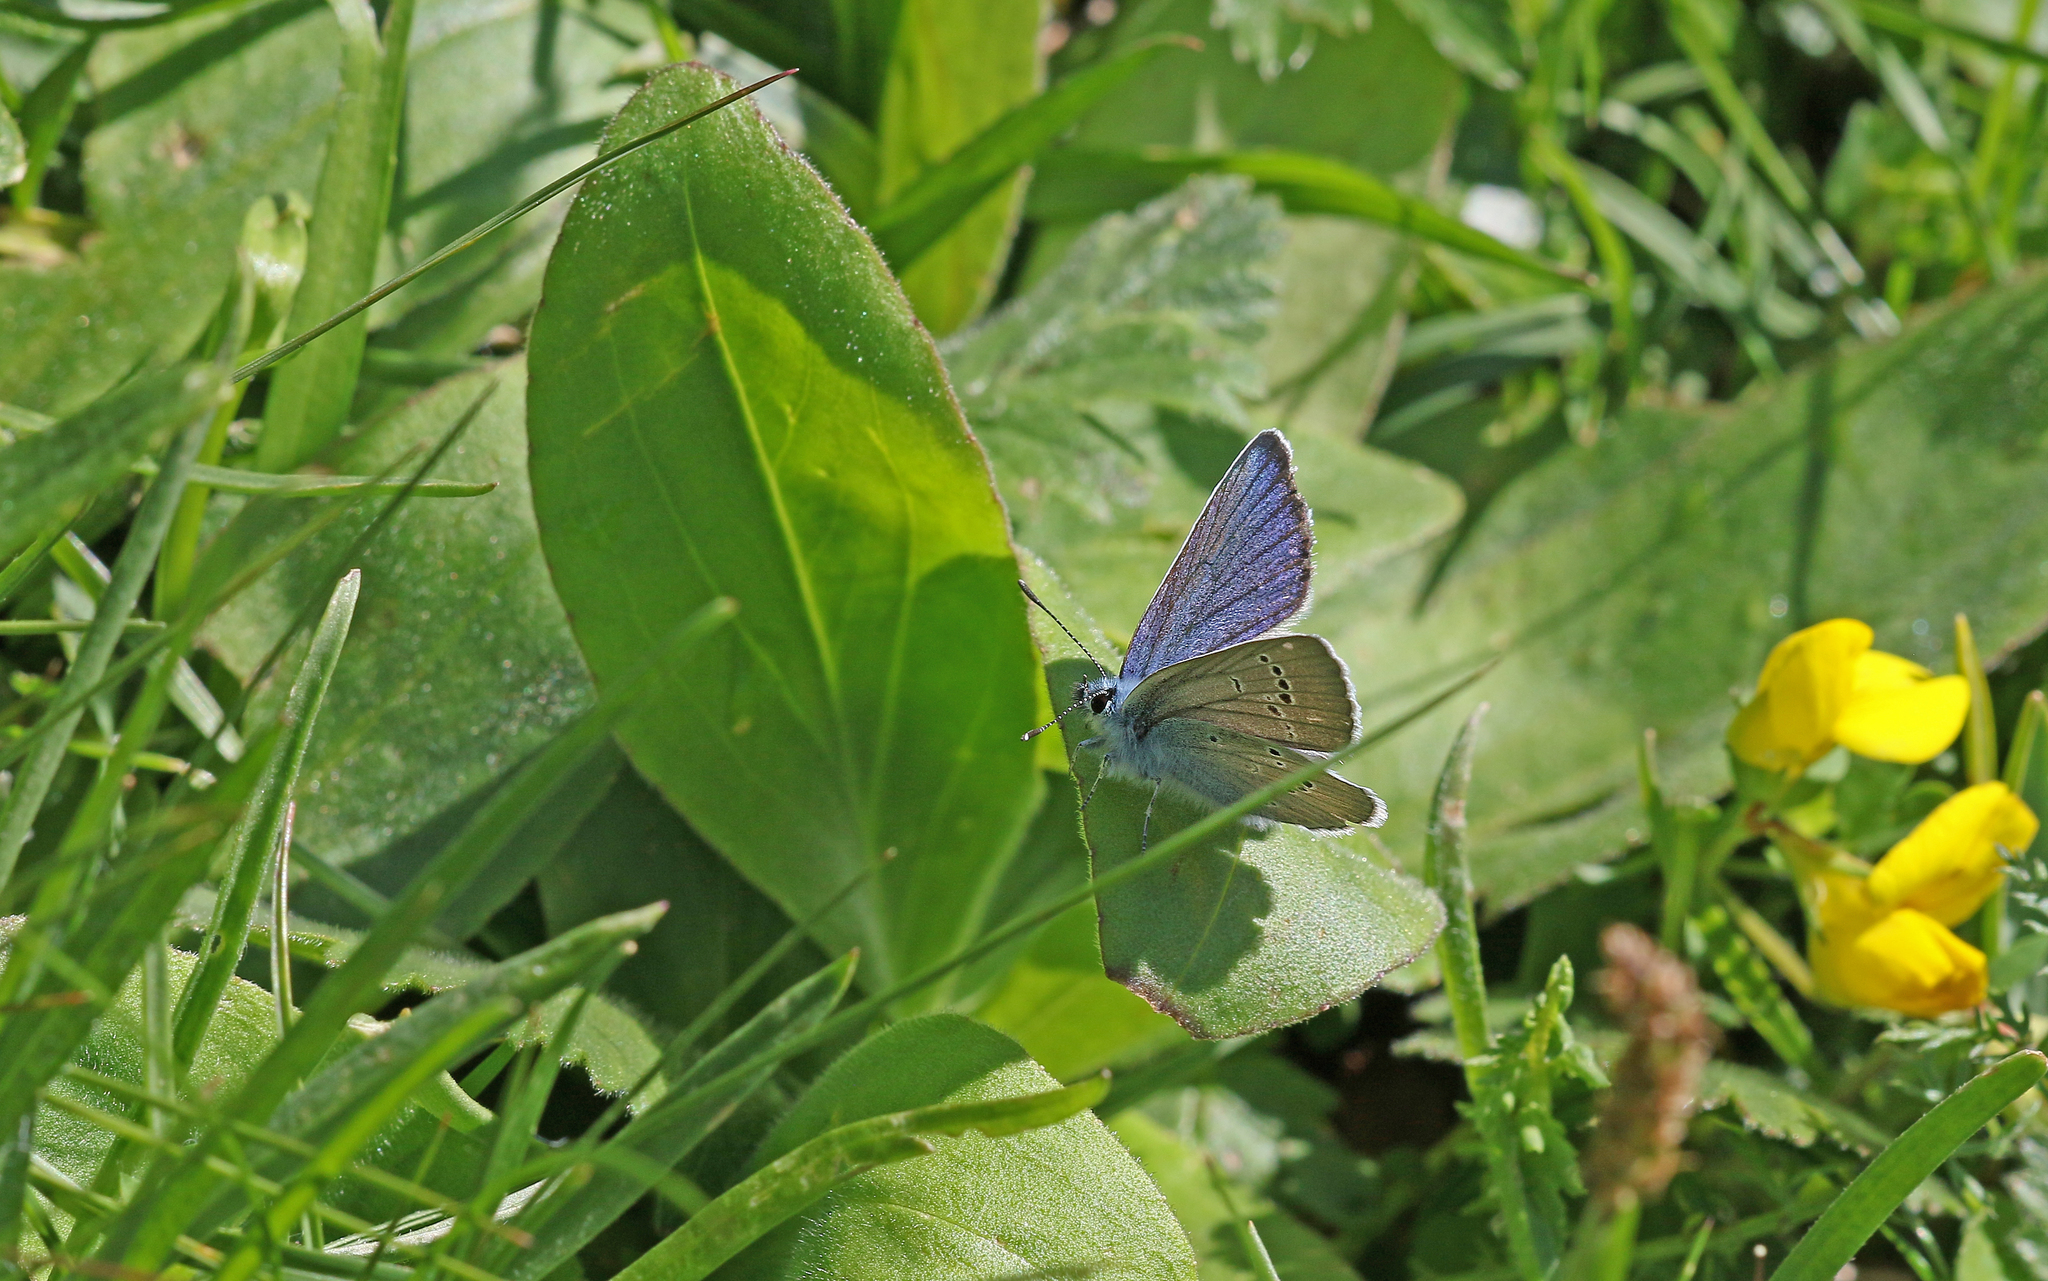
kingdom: Animalia
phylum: Arthropoda
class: Insecta
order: Lepidoptera
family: Lycaenidae
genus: Cyaniris
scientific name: Cyaniris semiargus
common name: Mazarine blue
